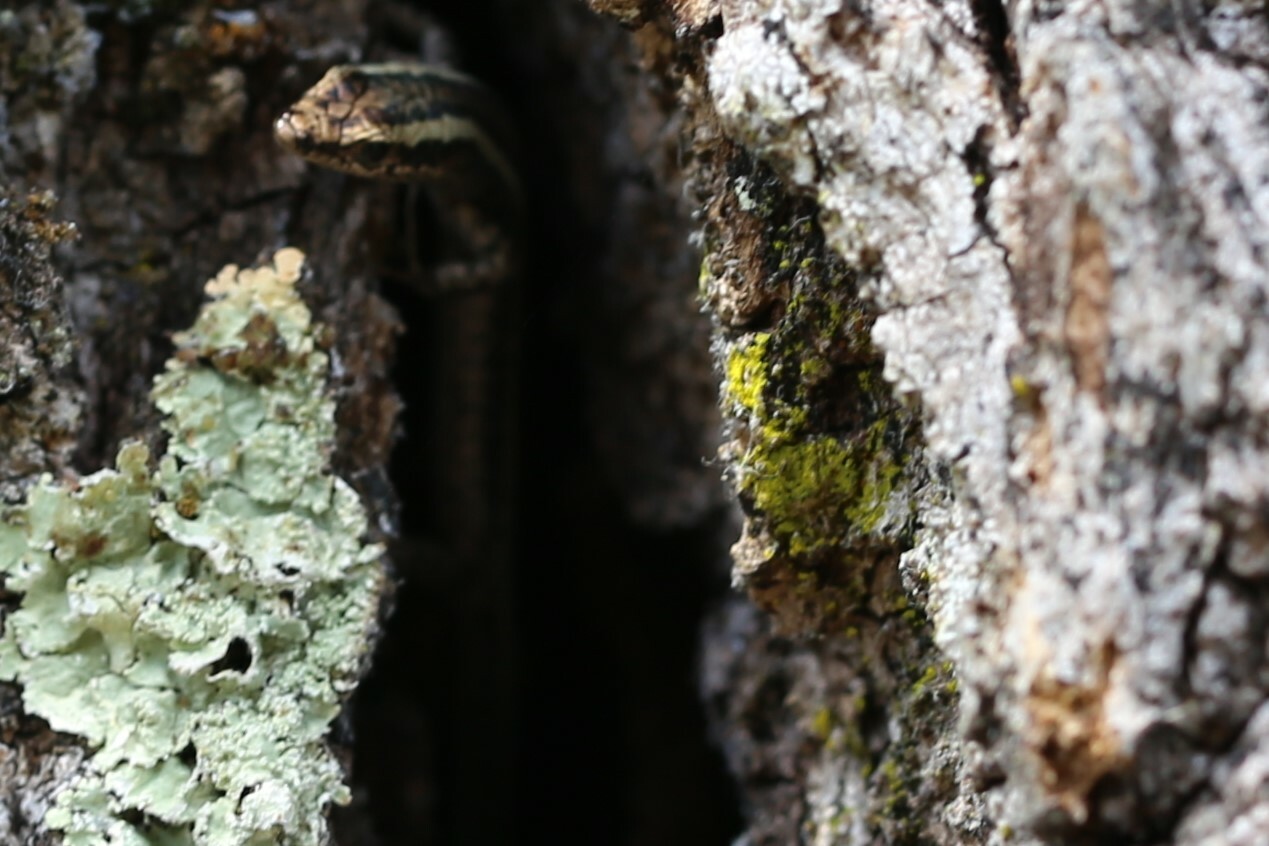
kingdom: Animalia
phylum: Chordata
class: Squamata
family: Scincidae
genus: Cryptoblepharus
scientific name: Cryptoblepharus pulcher
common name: Elegant snake-eyed skink
